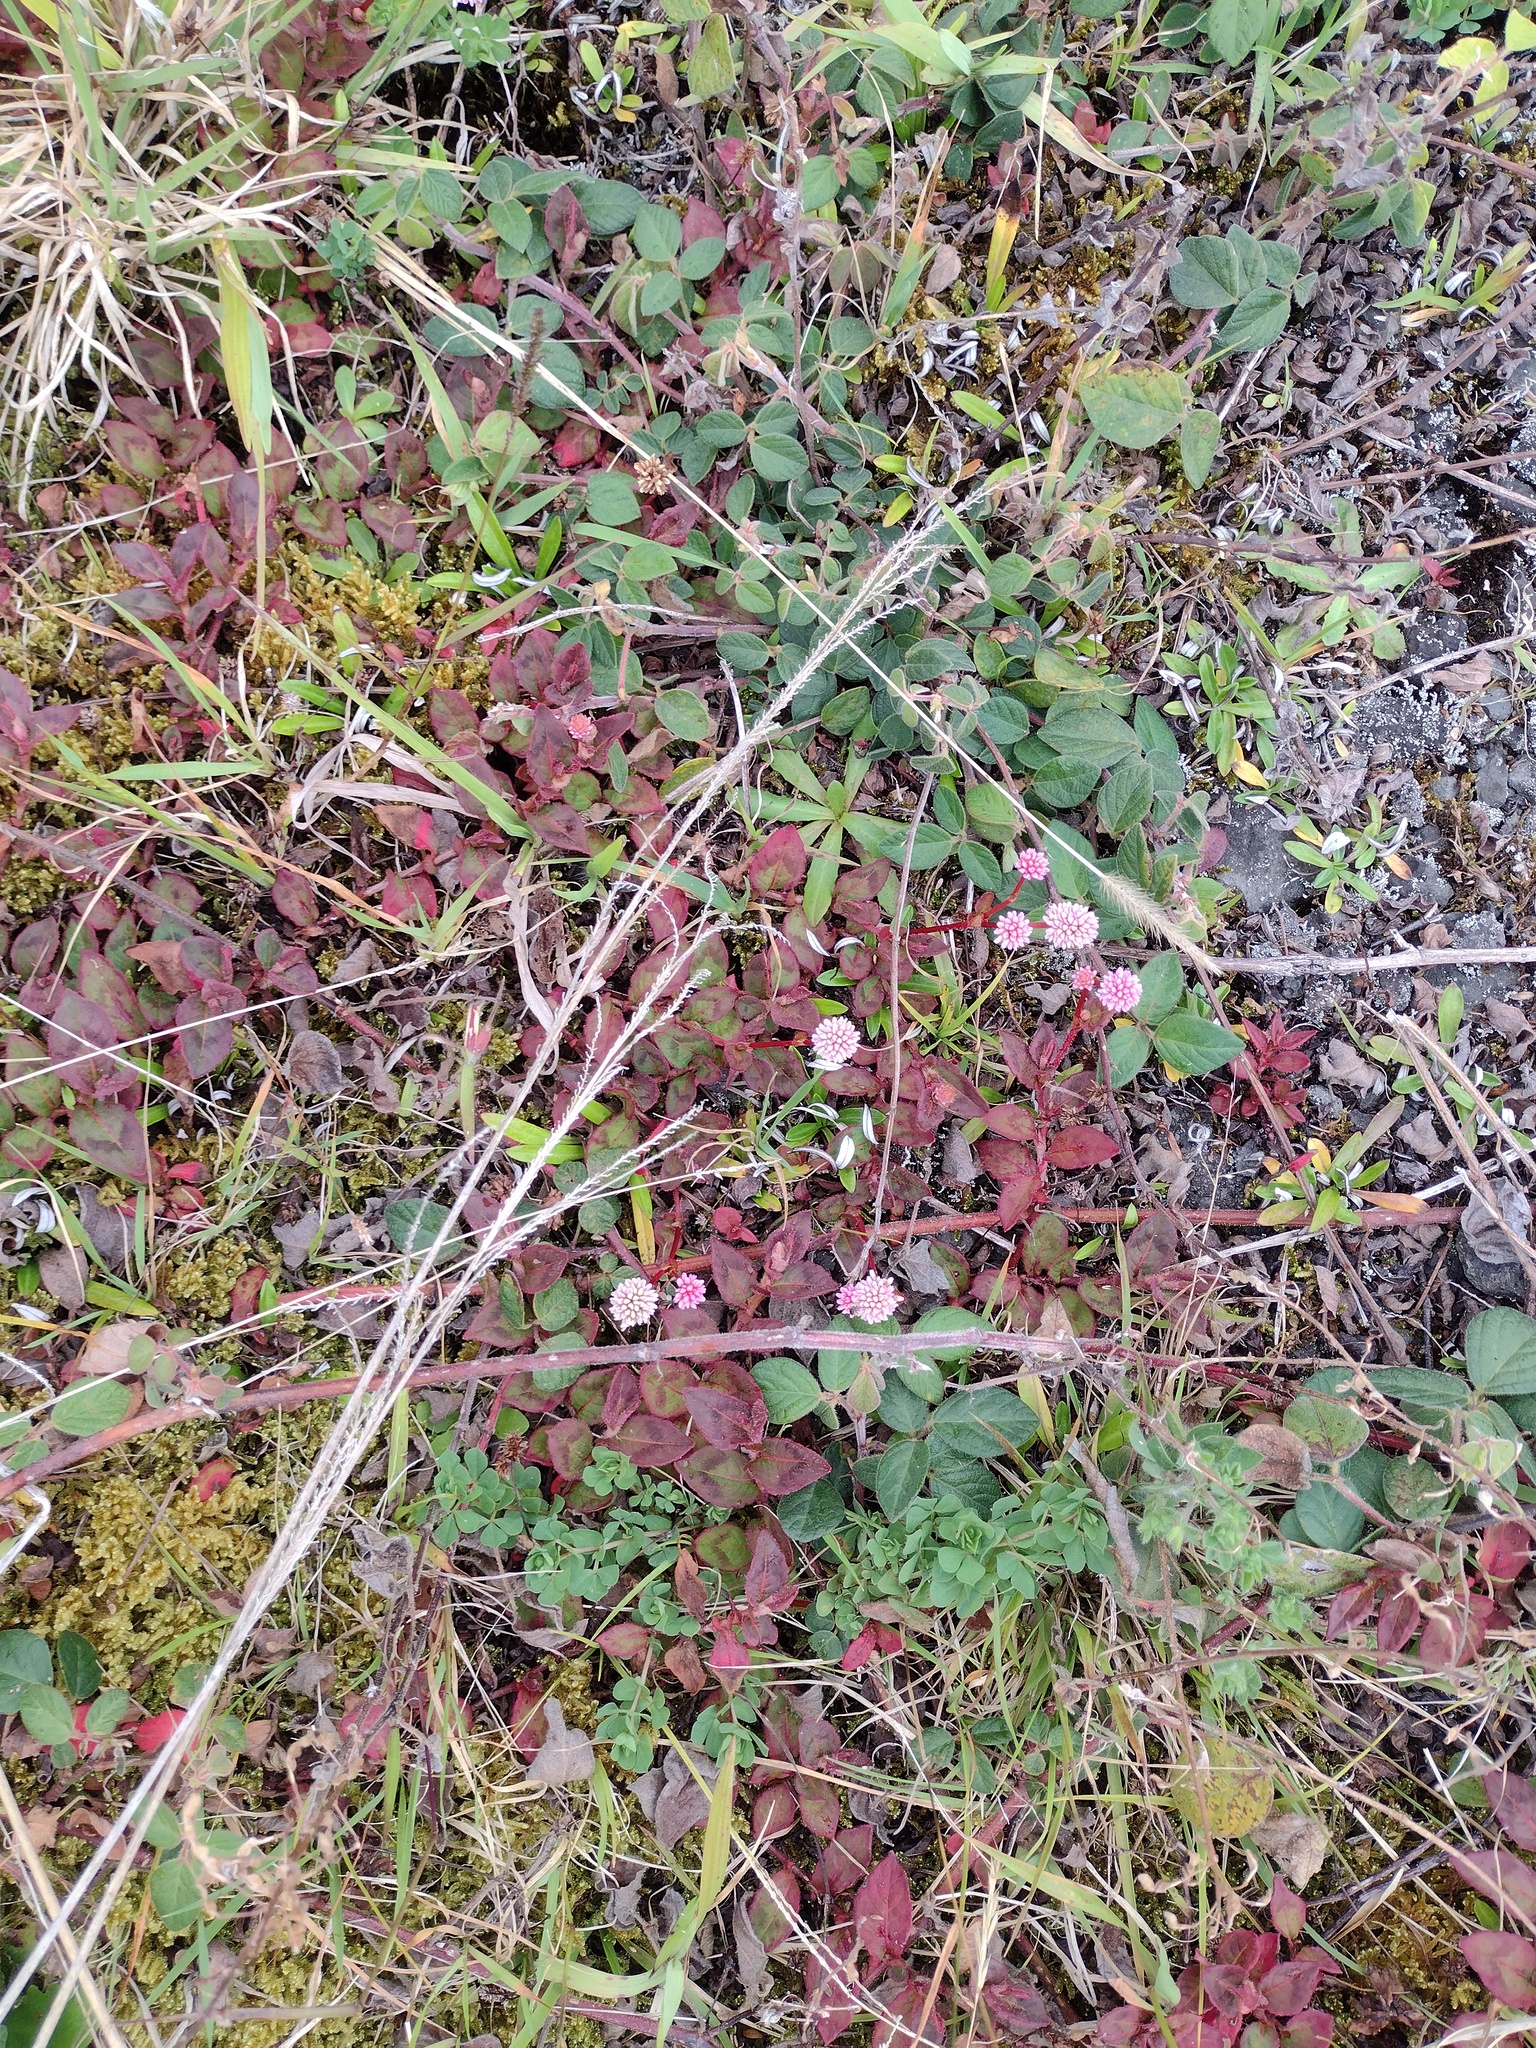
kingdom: Plantae
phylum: Tracheophyta
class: Magnoliopsida
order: Caryophyllales
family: Polygonaceae
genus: Persicaria
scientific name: Persicaria capitata
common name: Pinkhead smartweed
